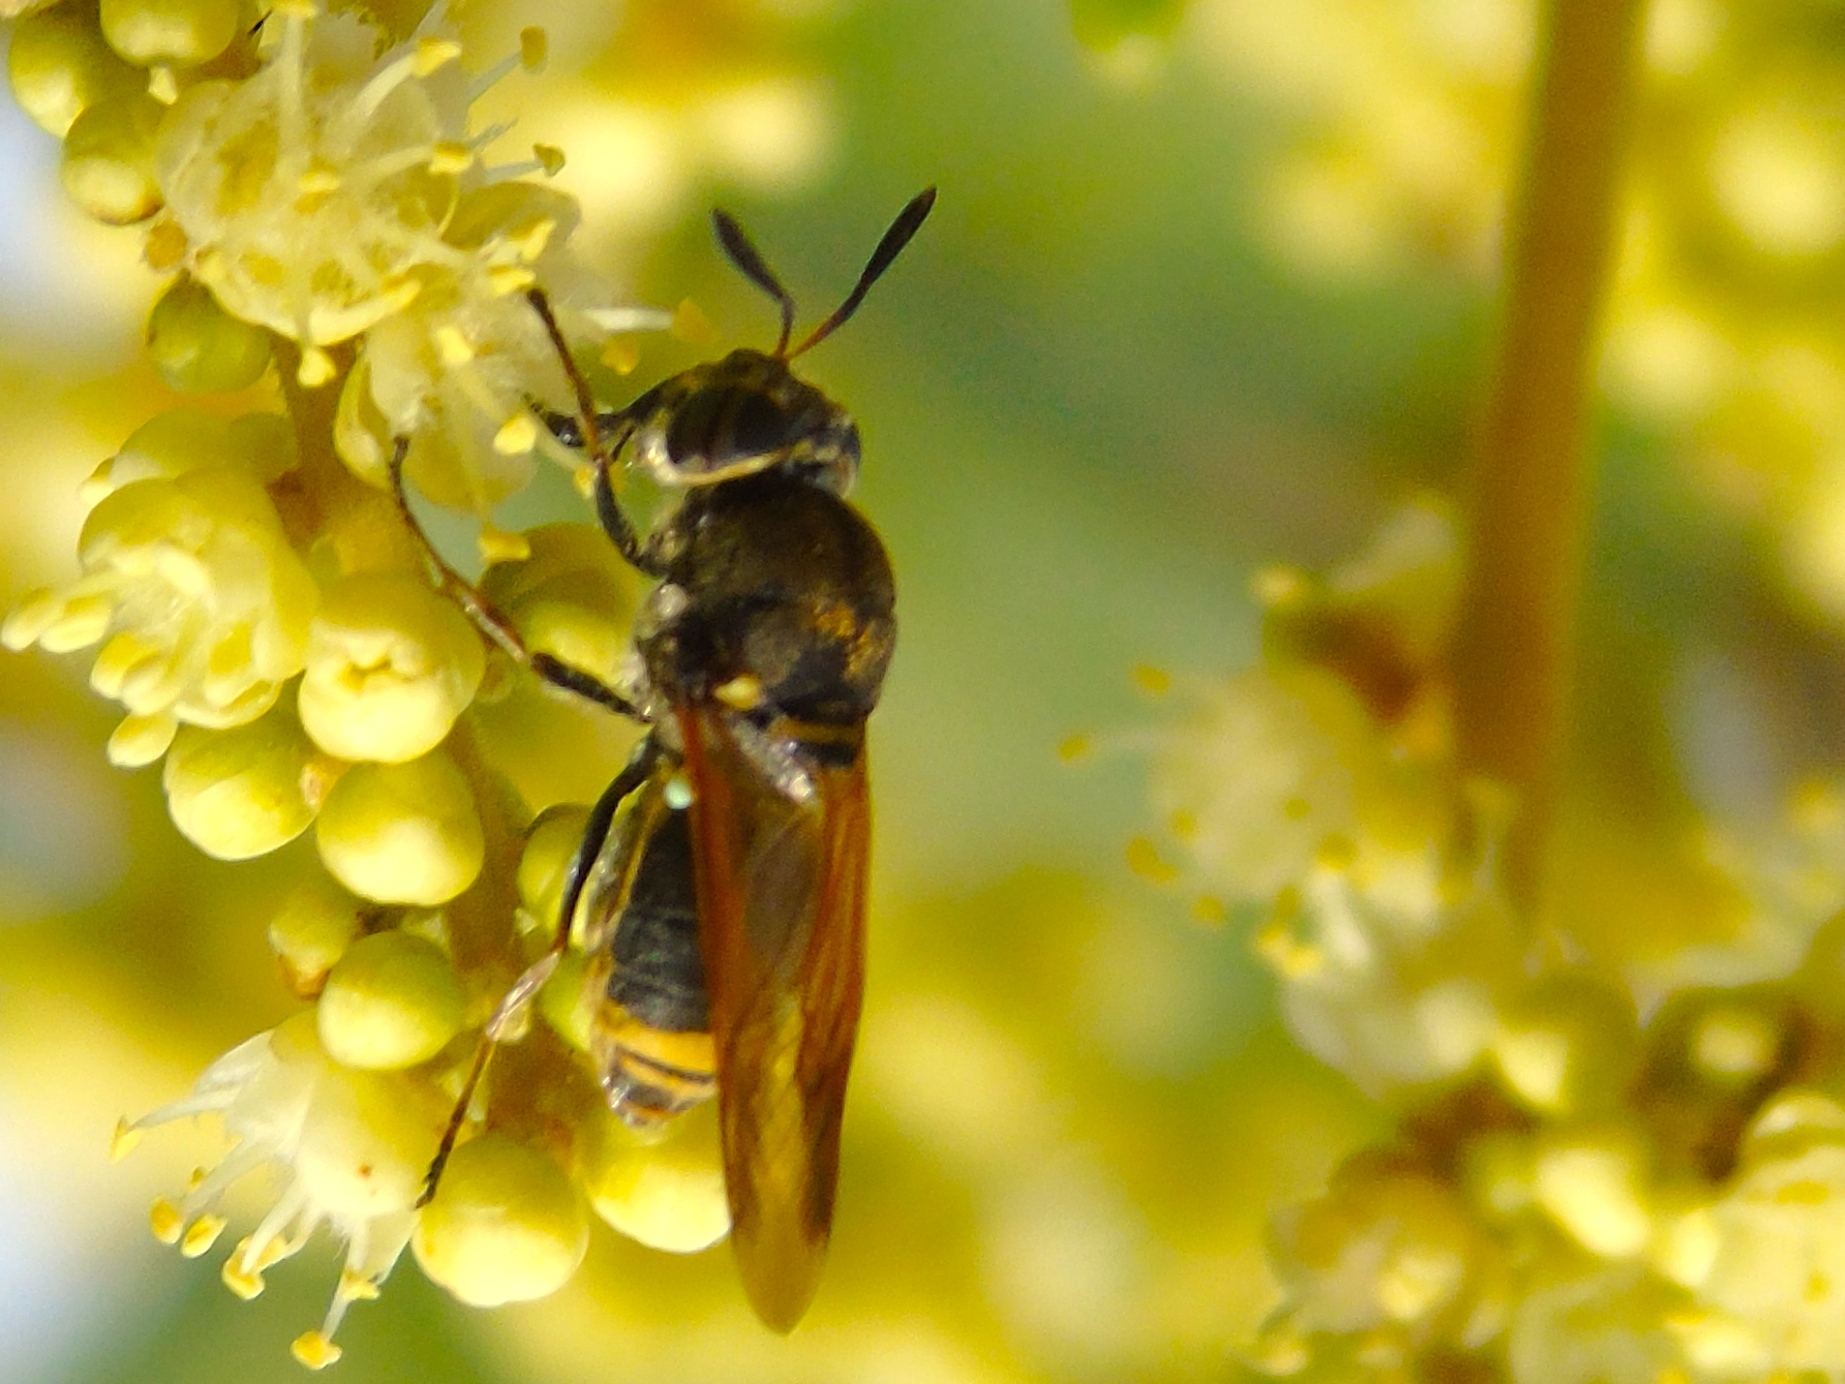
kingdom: Animalia
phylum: Arthropoda
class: Insecta
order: Diptera
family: Stratiomyidae
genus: Hoplitimyia
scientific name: Hoplitimyia
